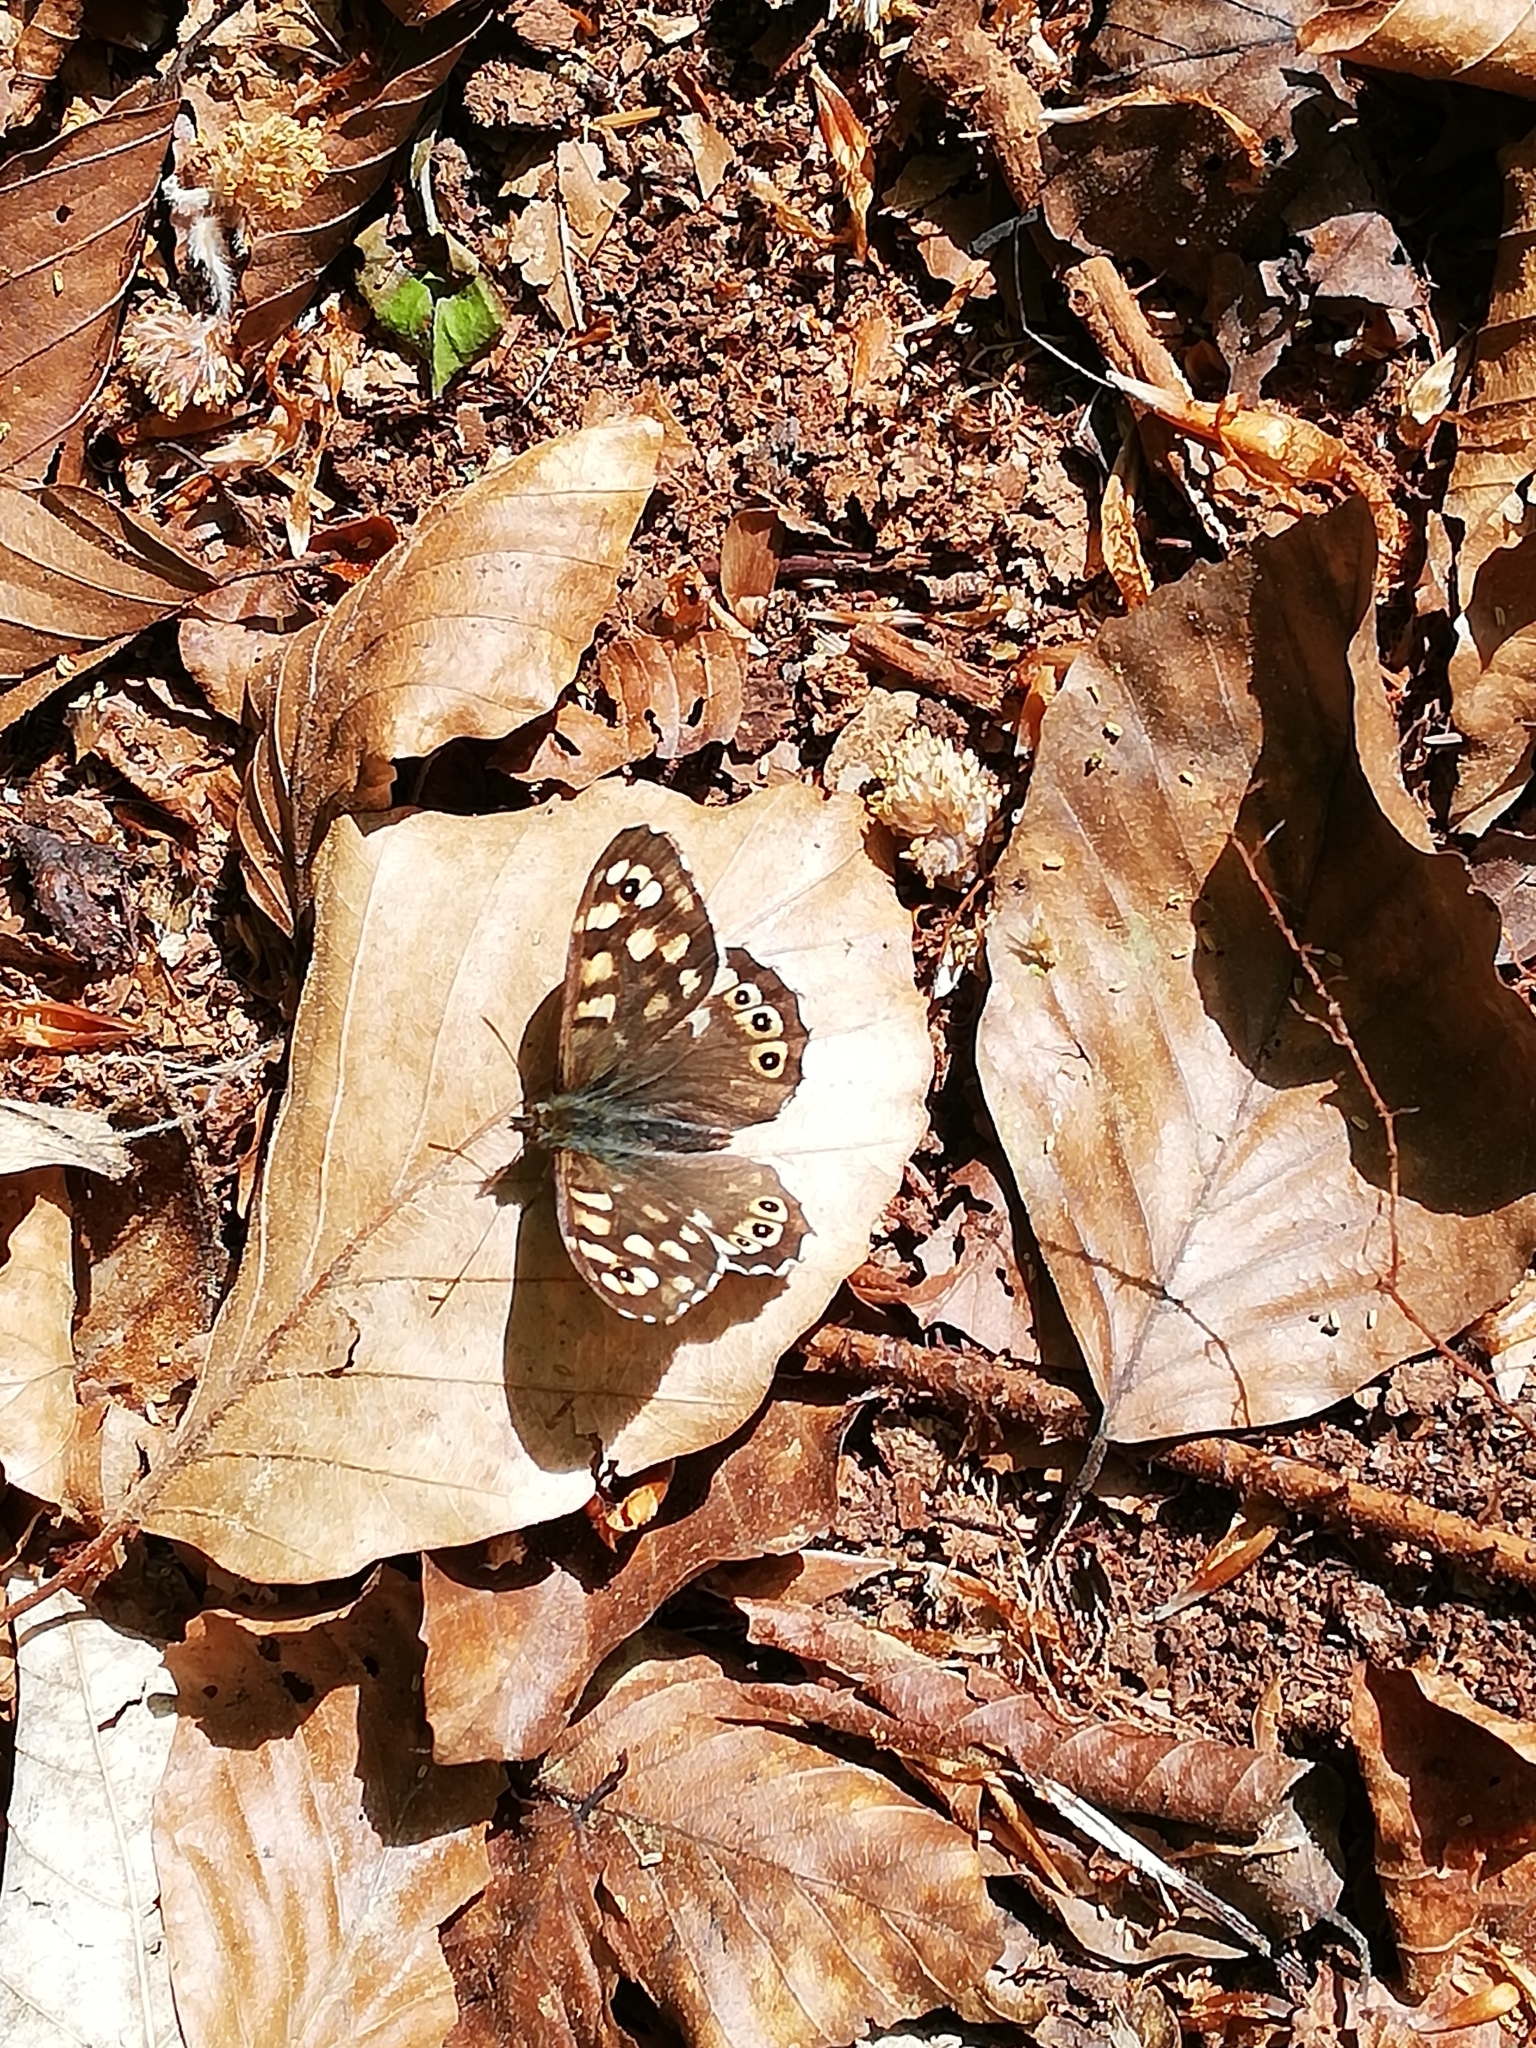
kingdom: Animalia
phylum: Arthropoda
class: Insecta
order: Lepidoptera
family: Nymphalidae
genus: Pararge
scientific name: Pararge aegeria
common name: Speckled wood
